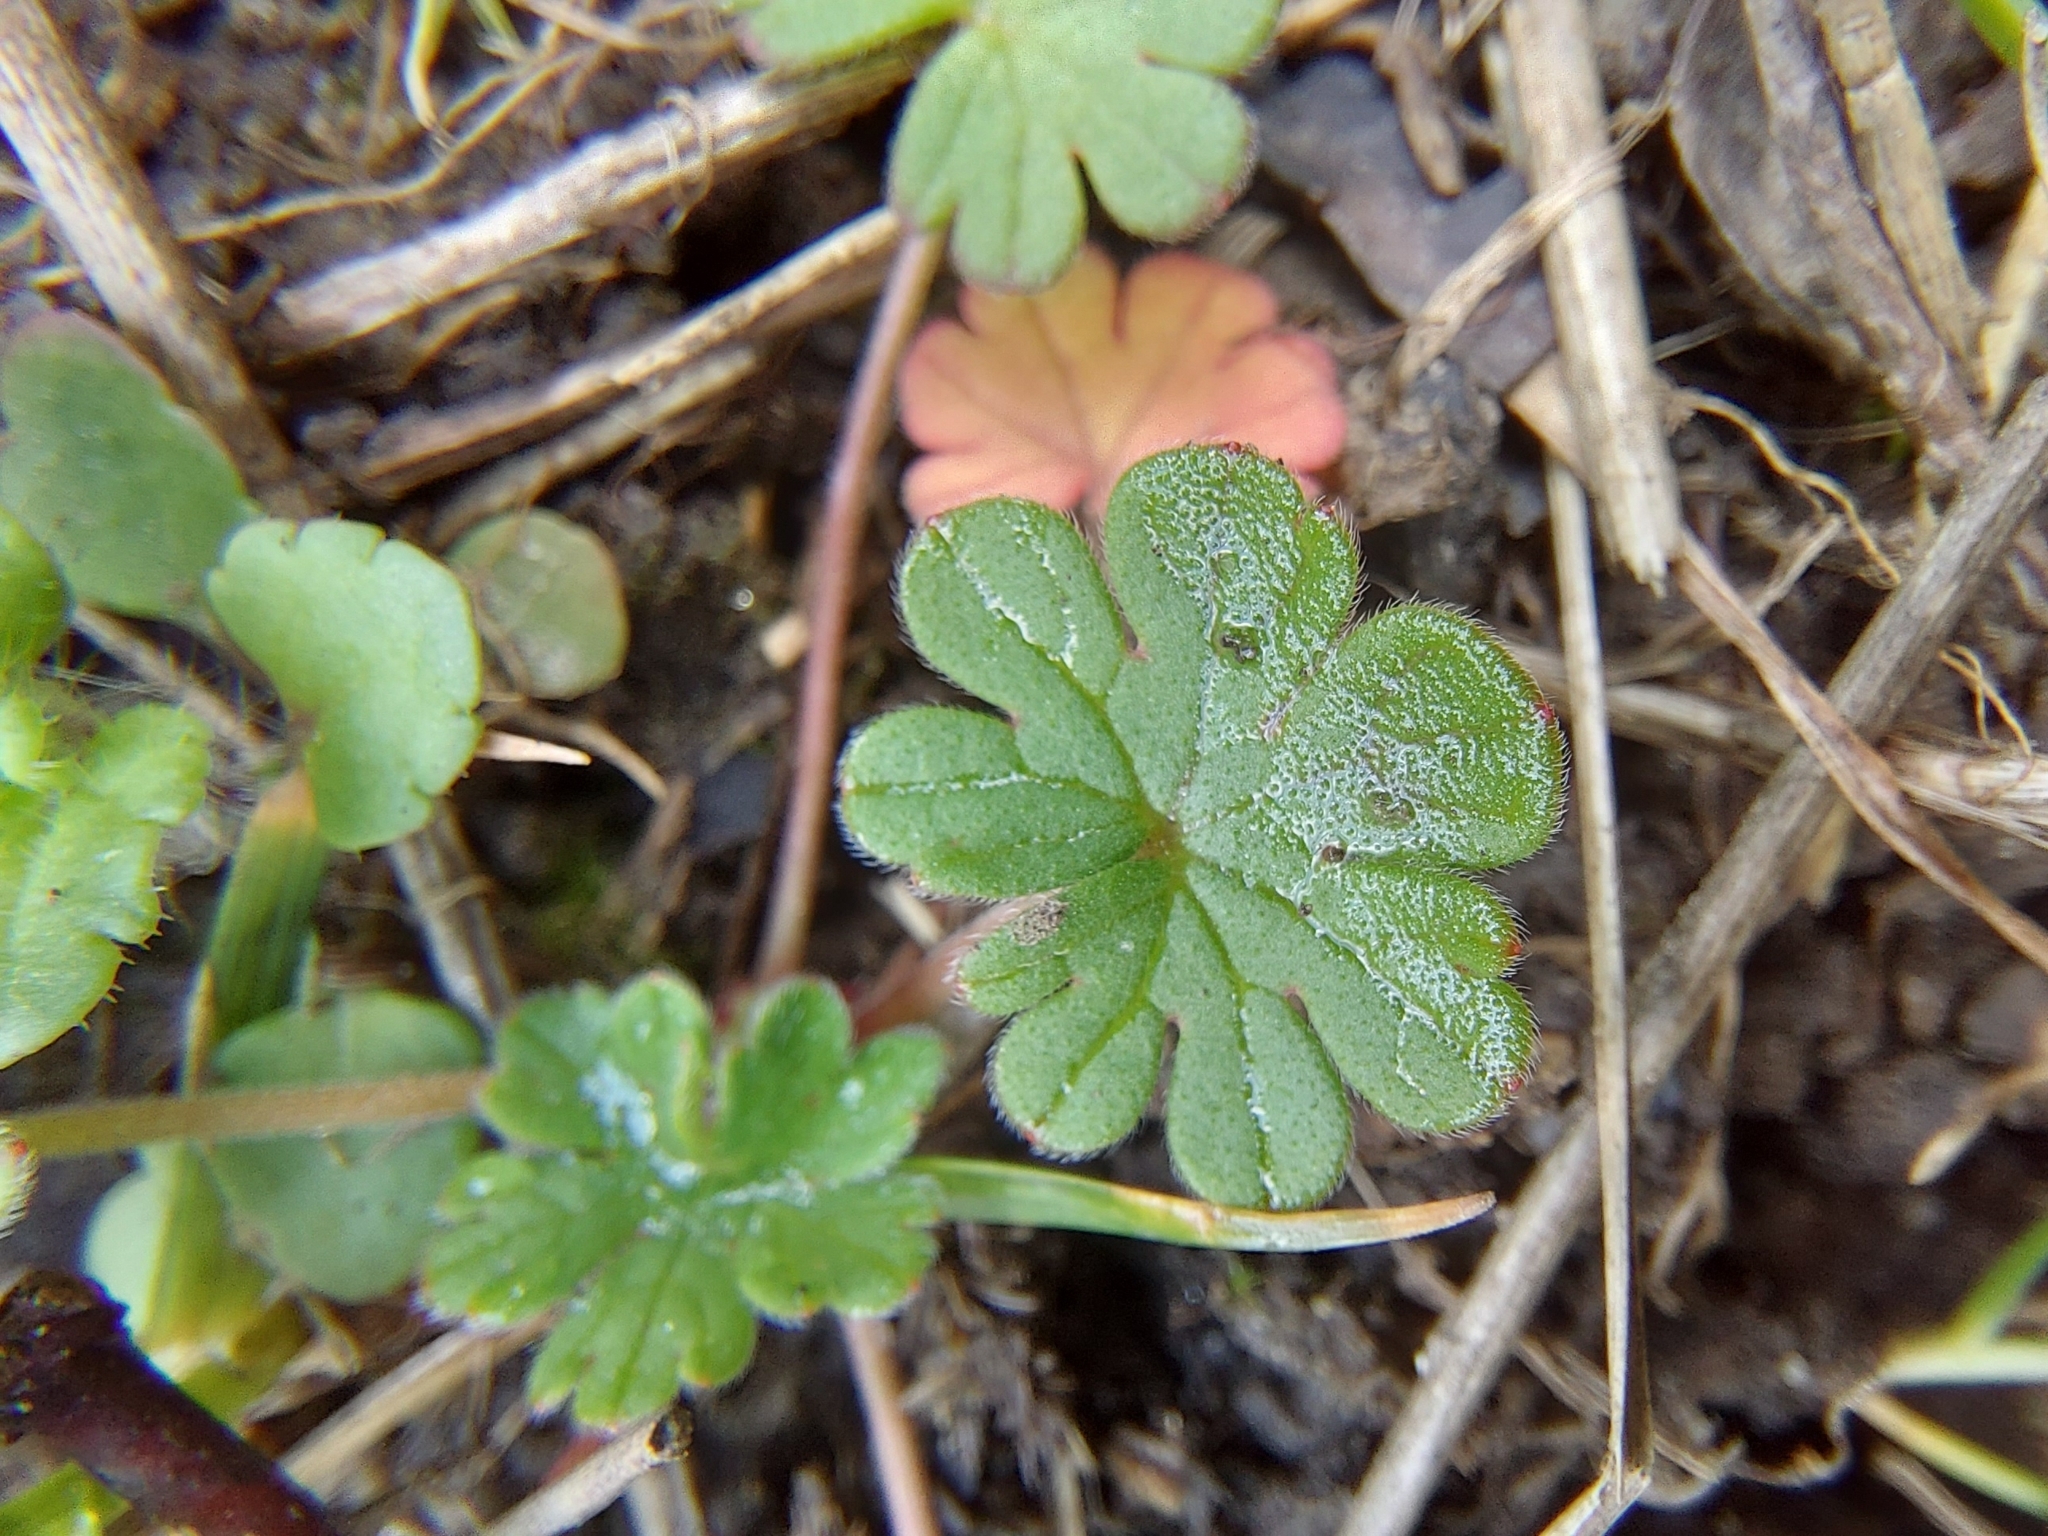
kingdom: Plantae
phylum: Tracheophyta
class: Magnoliopsida
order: Geraniales
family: Geraniaceae
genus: Geranium
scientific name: Geranium pusillum
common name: Small geranium
